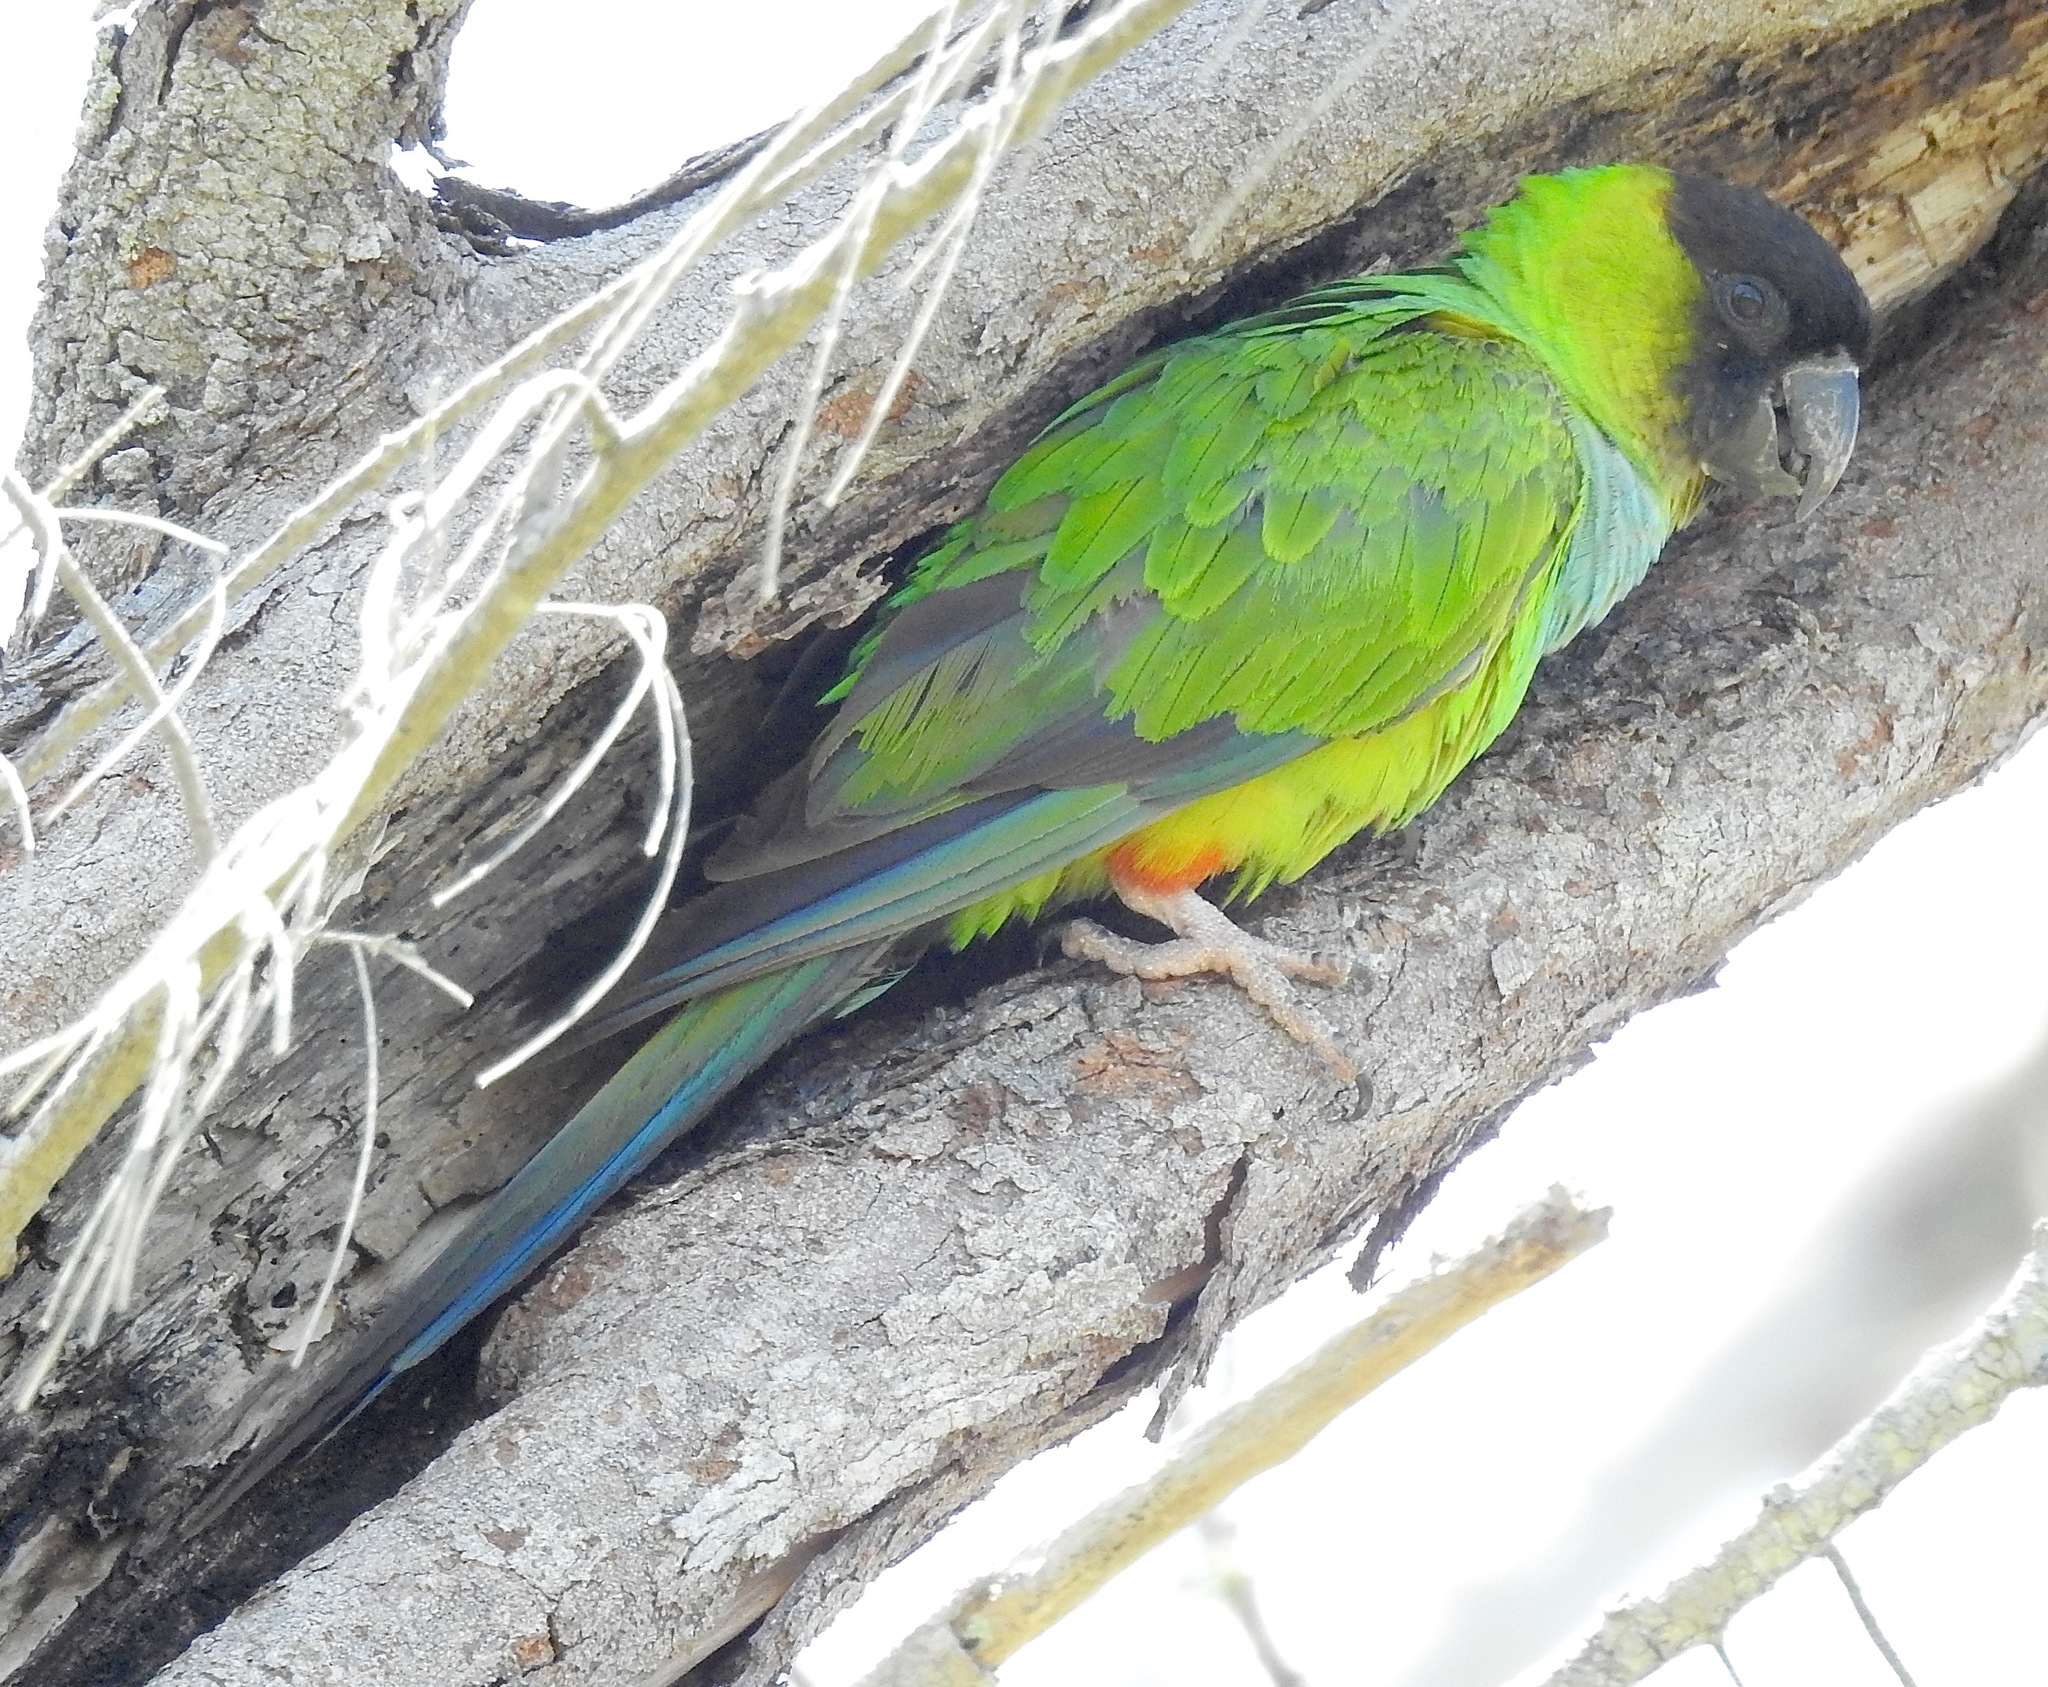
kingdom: Animalia
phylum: Chordata
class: Aves
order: Psittaciformes
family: Psittacidae
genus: Nandayus
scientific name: Nandayus nenday
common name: Nanday parakeet
